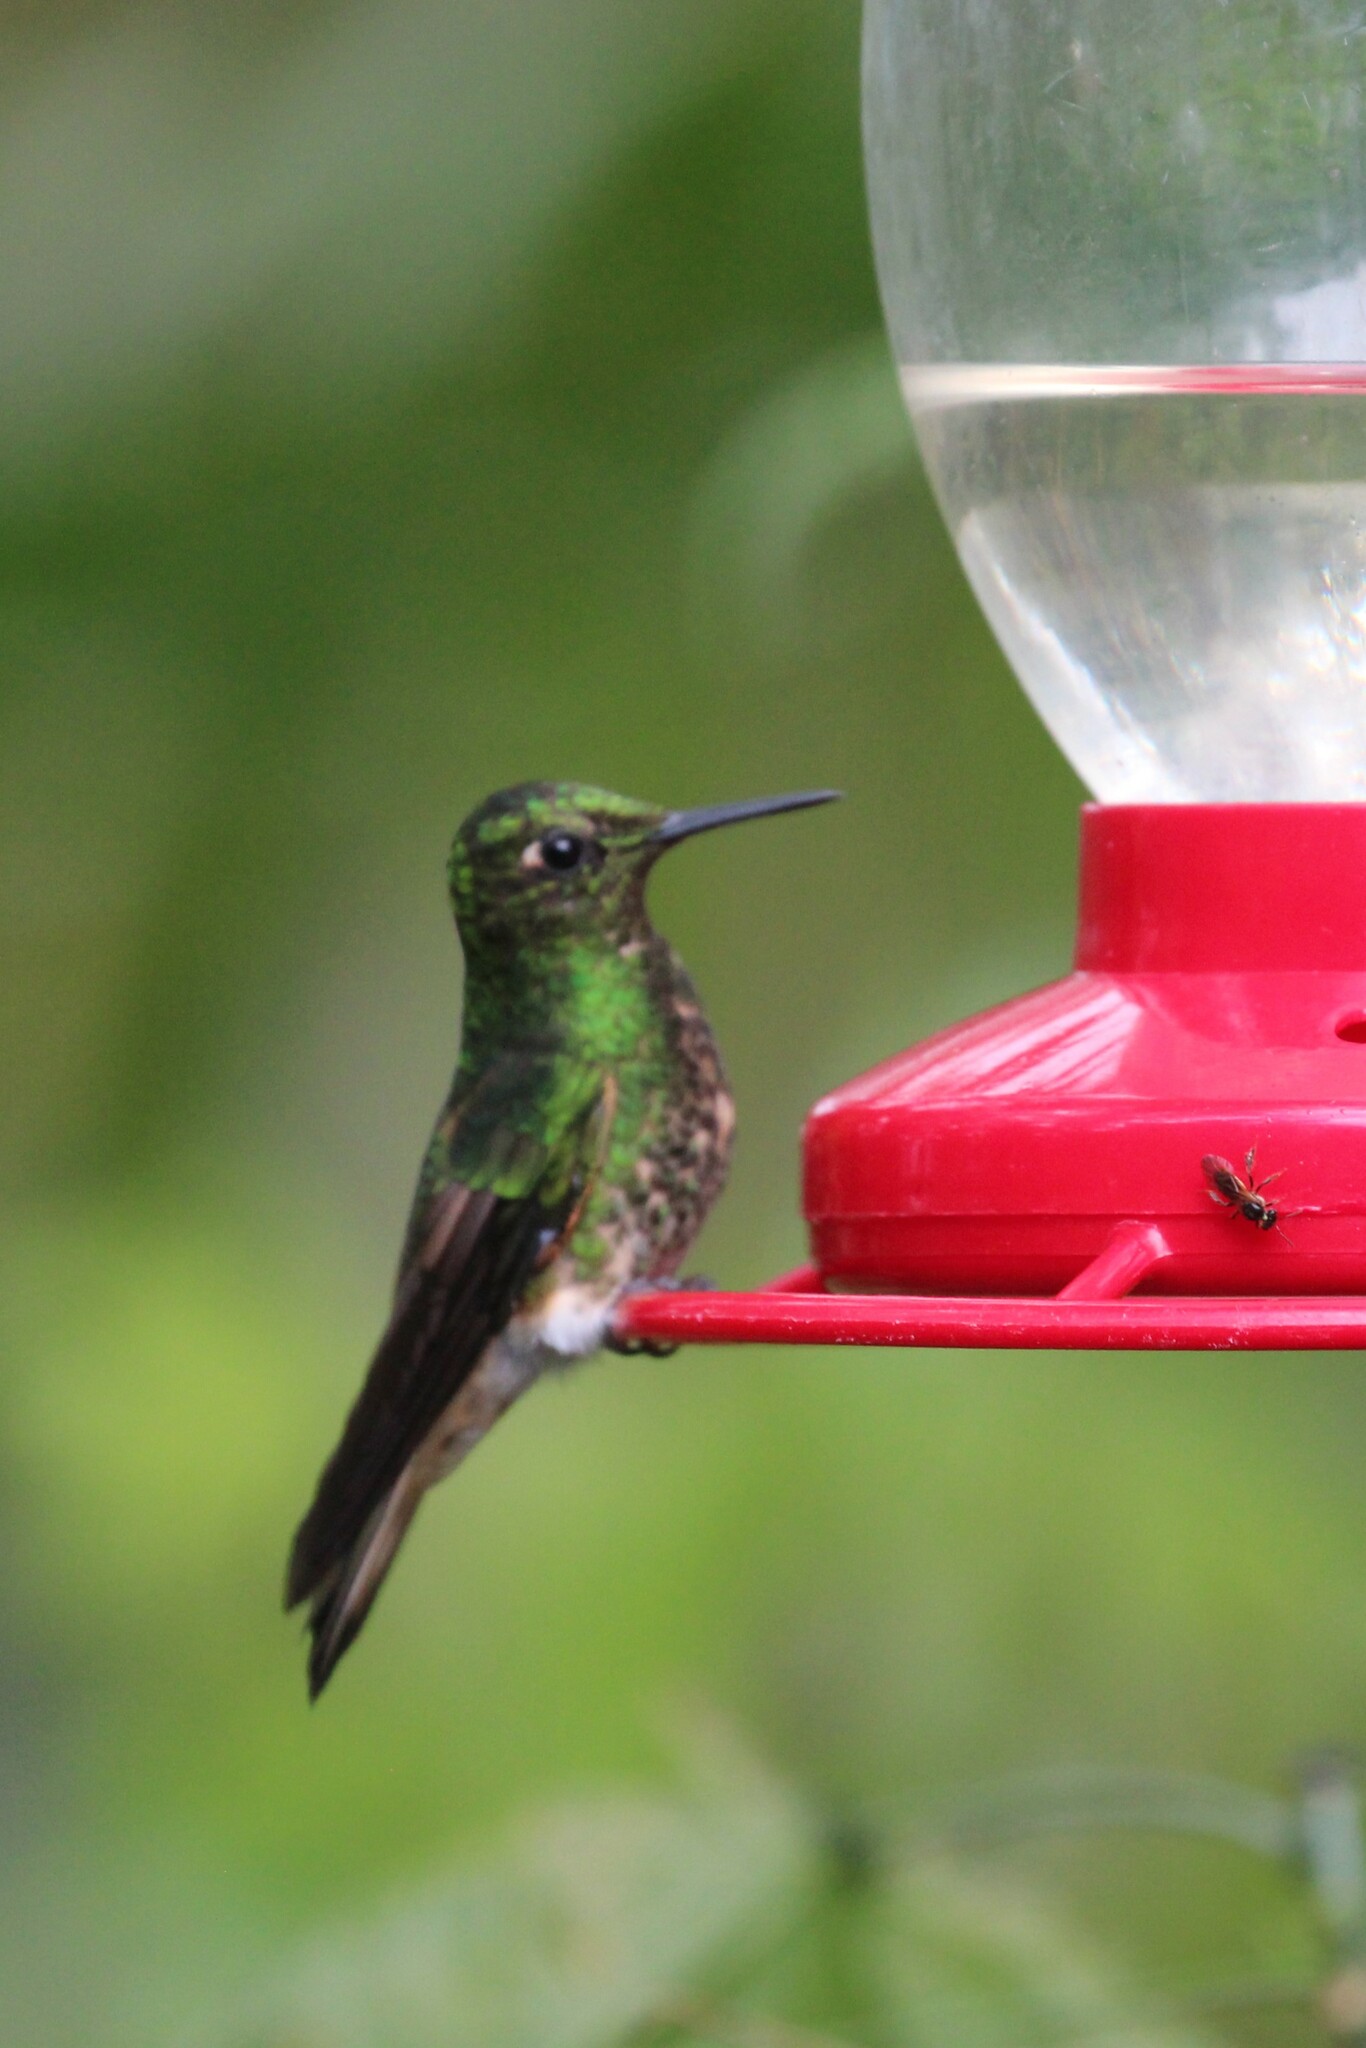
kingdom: Animalia
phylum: Chordata
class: Aves
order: Apodiformes
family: Trochilidae
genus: Boissonneaua
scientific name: Boissonneaua flavescens
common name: Buff-tailed coronet
